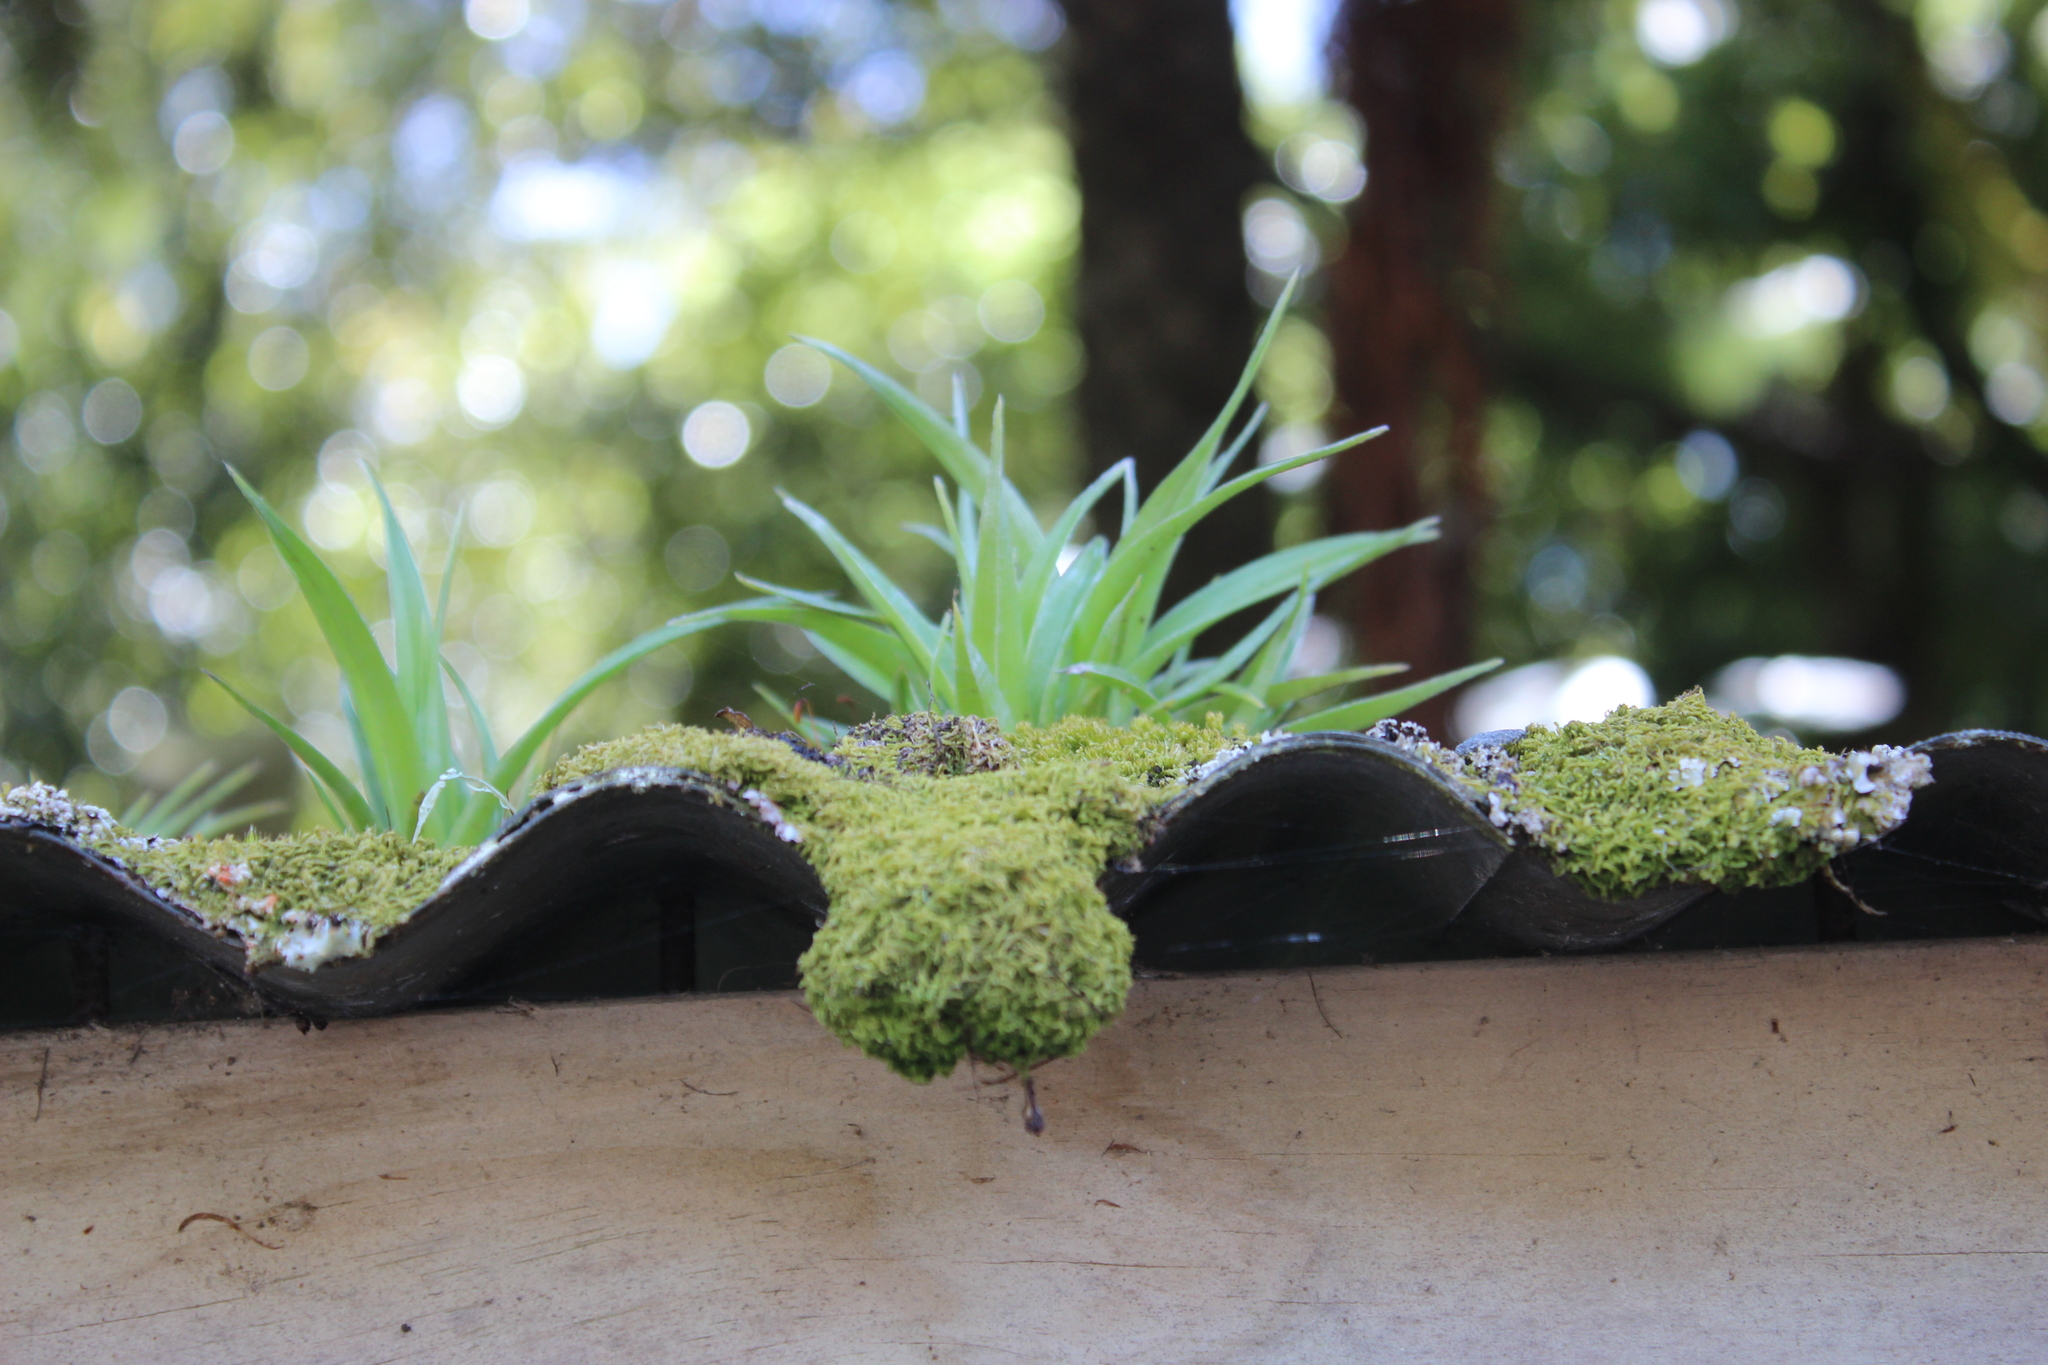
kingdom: Plantae
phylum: Tracheophyta
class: Liliopsida
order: Asparagales
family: Asteliaceae
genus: Astelia
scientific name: Astelia solandri
